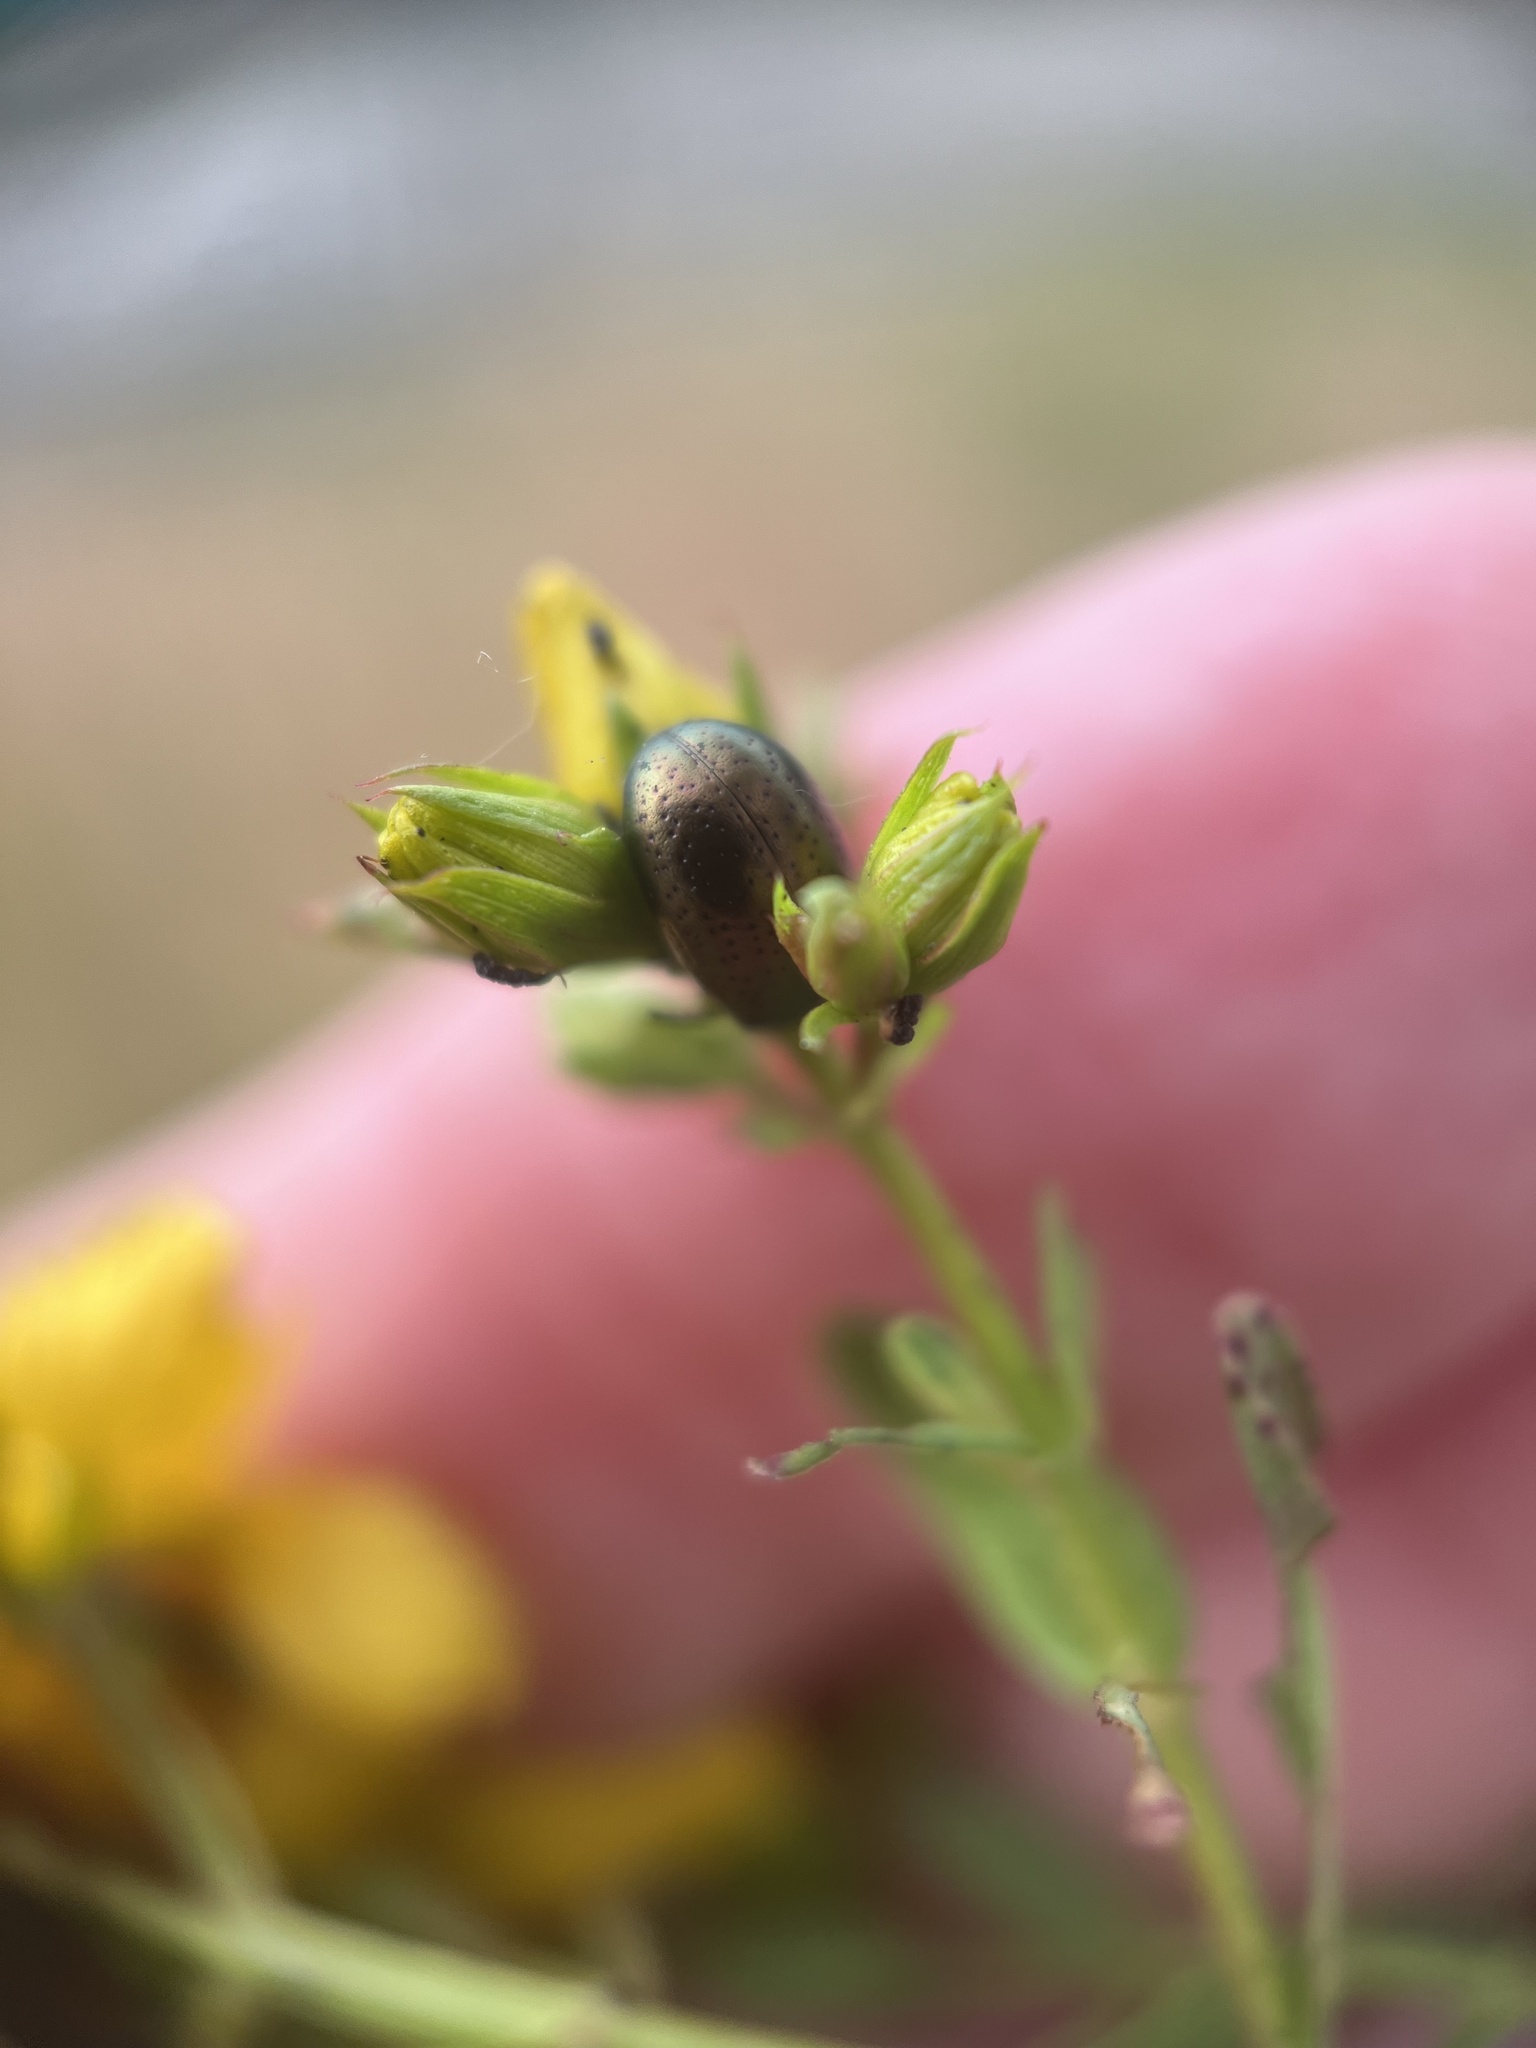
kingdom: Animalia
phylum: Arthropoda
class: Insecta
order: Coleoptera
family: Chrysomelidae
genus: Chrysolina
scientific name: Chrysolina hyperici
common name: St. johnswort beetle
